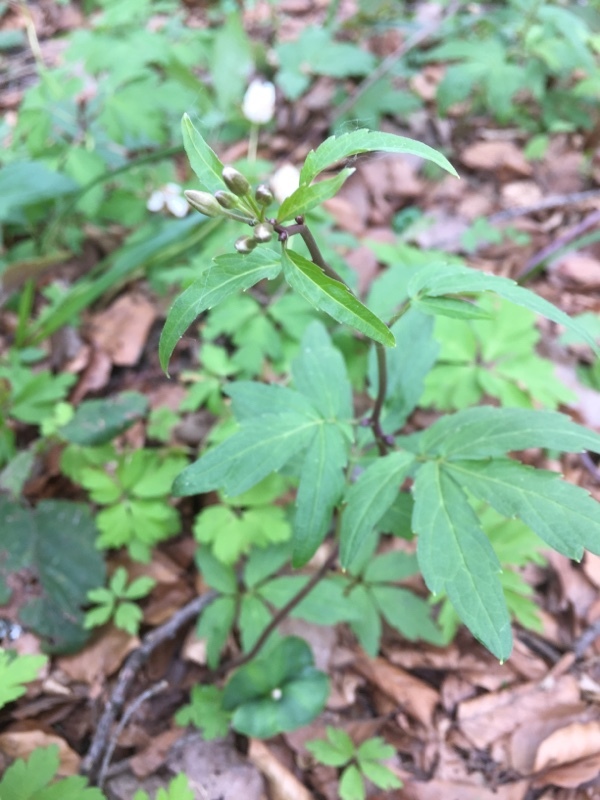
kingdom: Plantae
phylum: Tracheophyta
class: Magnoliopsida
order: Brassicales
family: Brassicaceae
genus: Cardamine
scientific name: Cardamine bulbifera
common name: Coralroot bittercress
